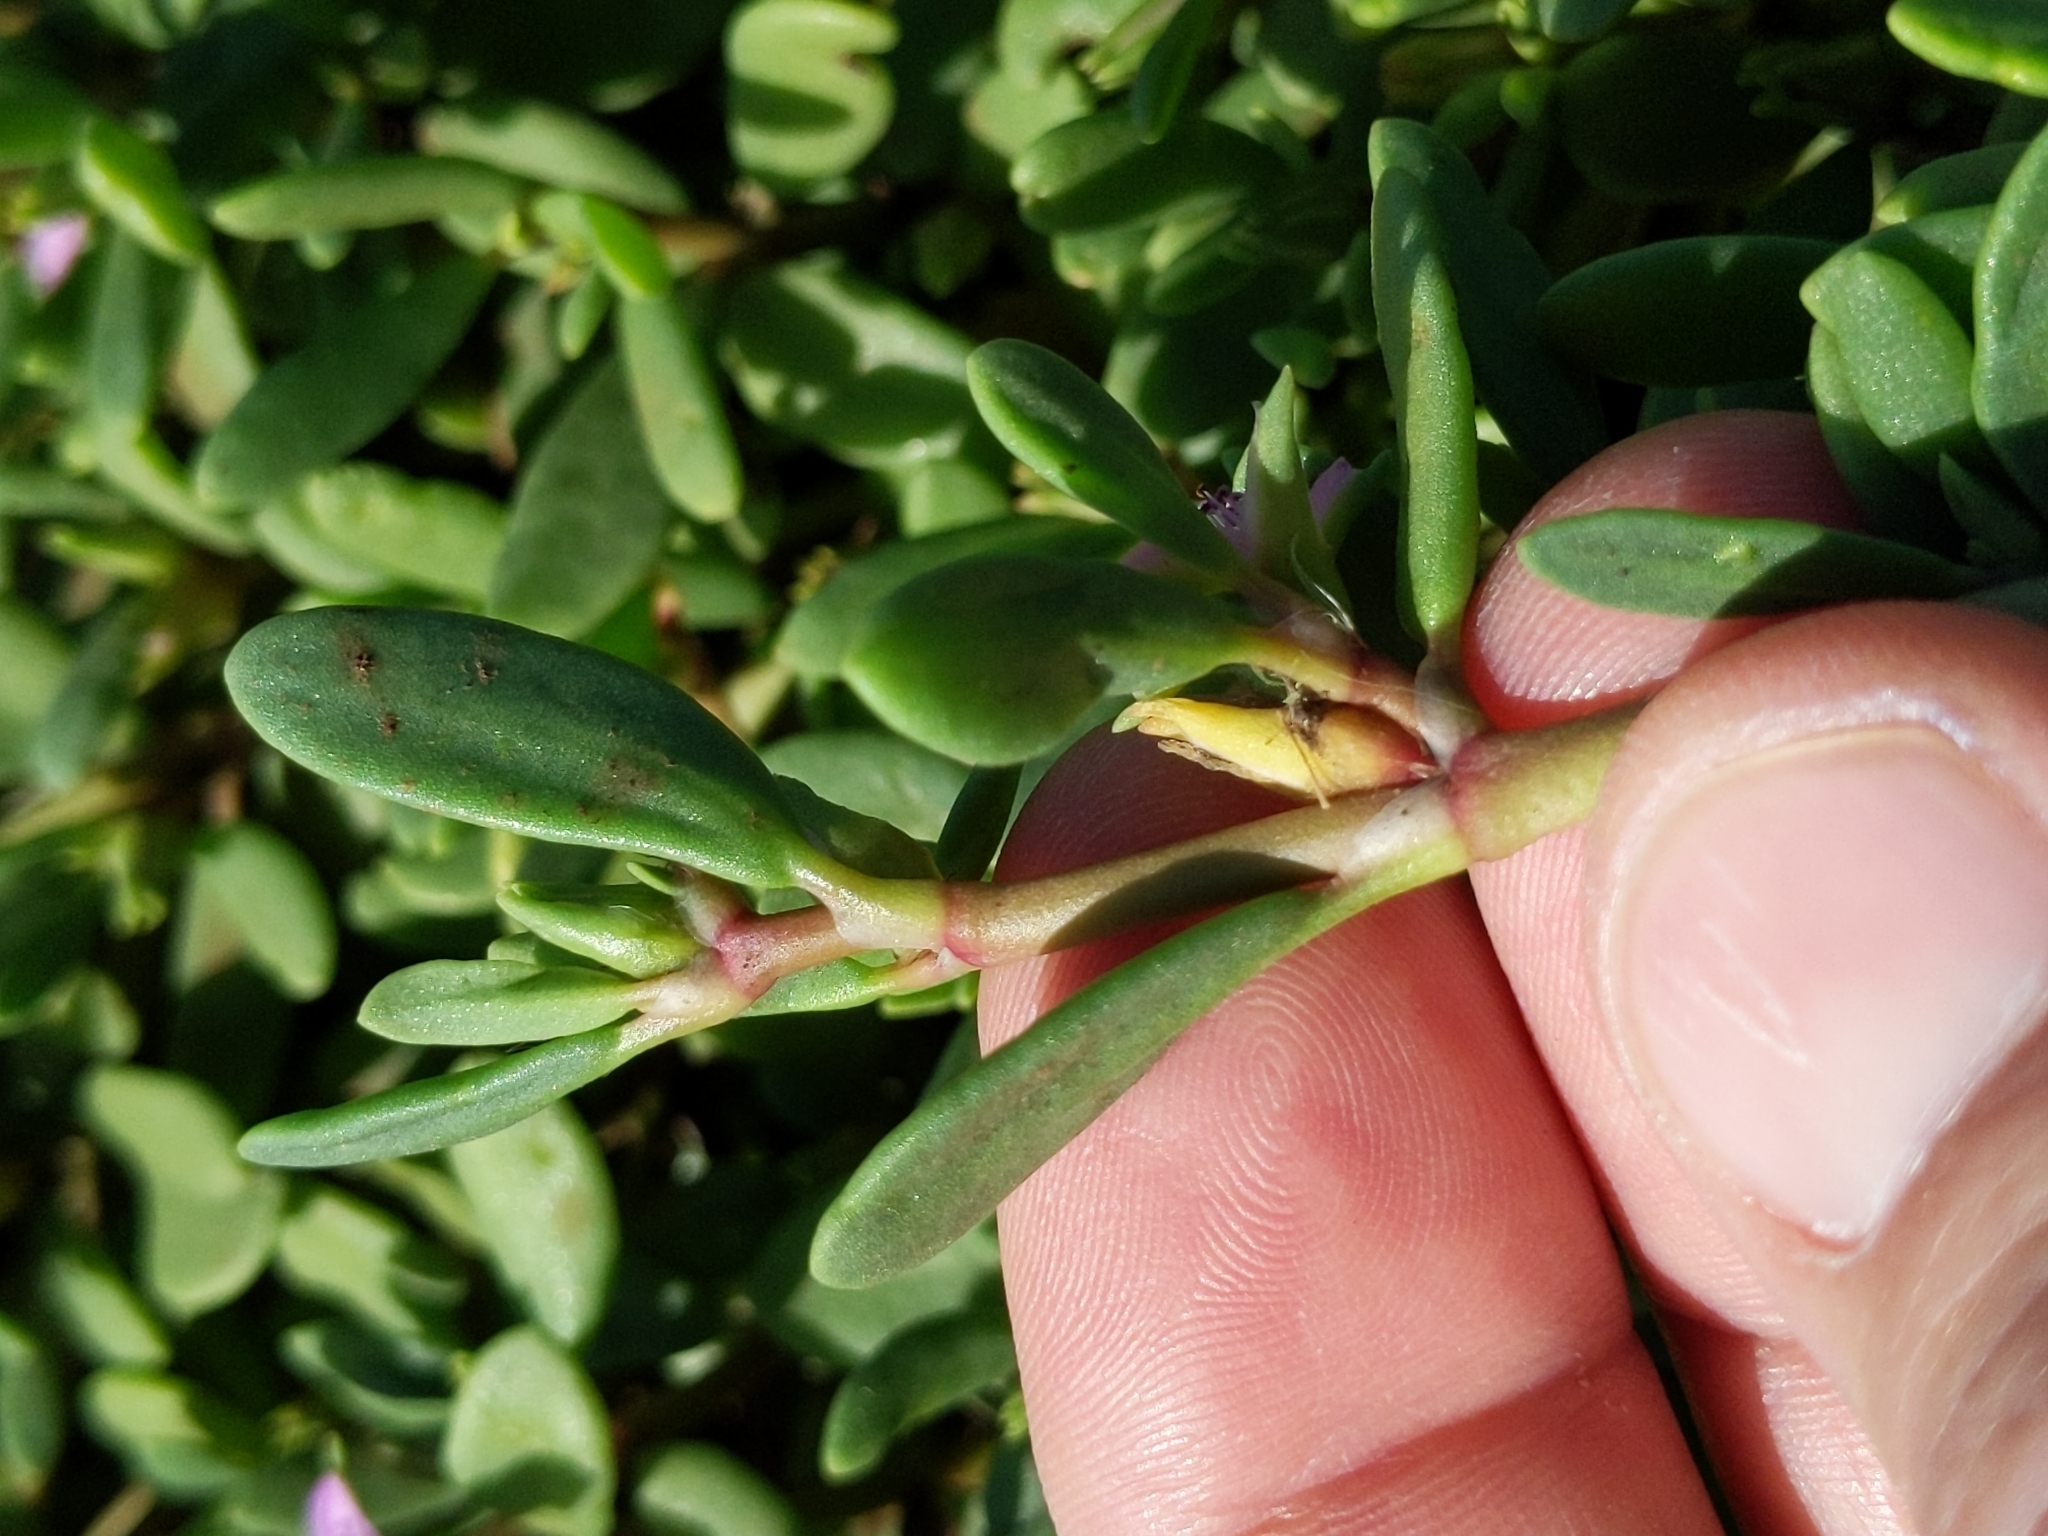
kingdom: Plantae
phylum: Tracheophyta
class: Magnoliopsida
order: Caryophyllales
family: Aizoaceae
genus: Sesuvium
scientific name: Sesuvium portulacastrum
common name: Sea-purslane
